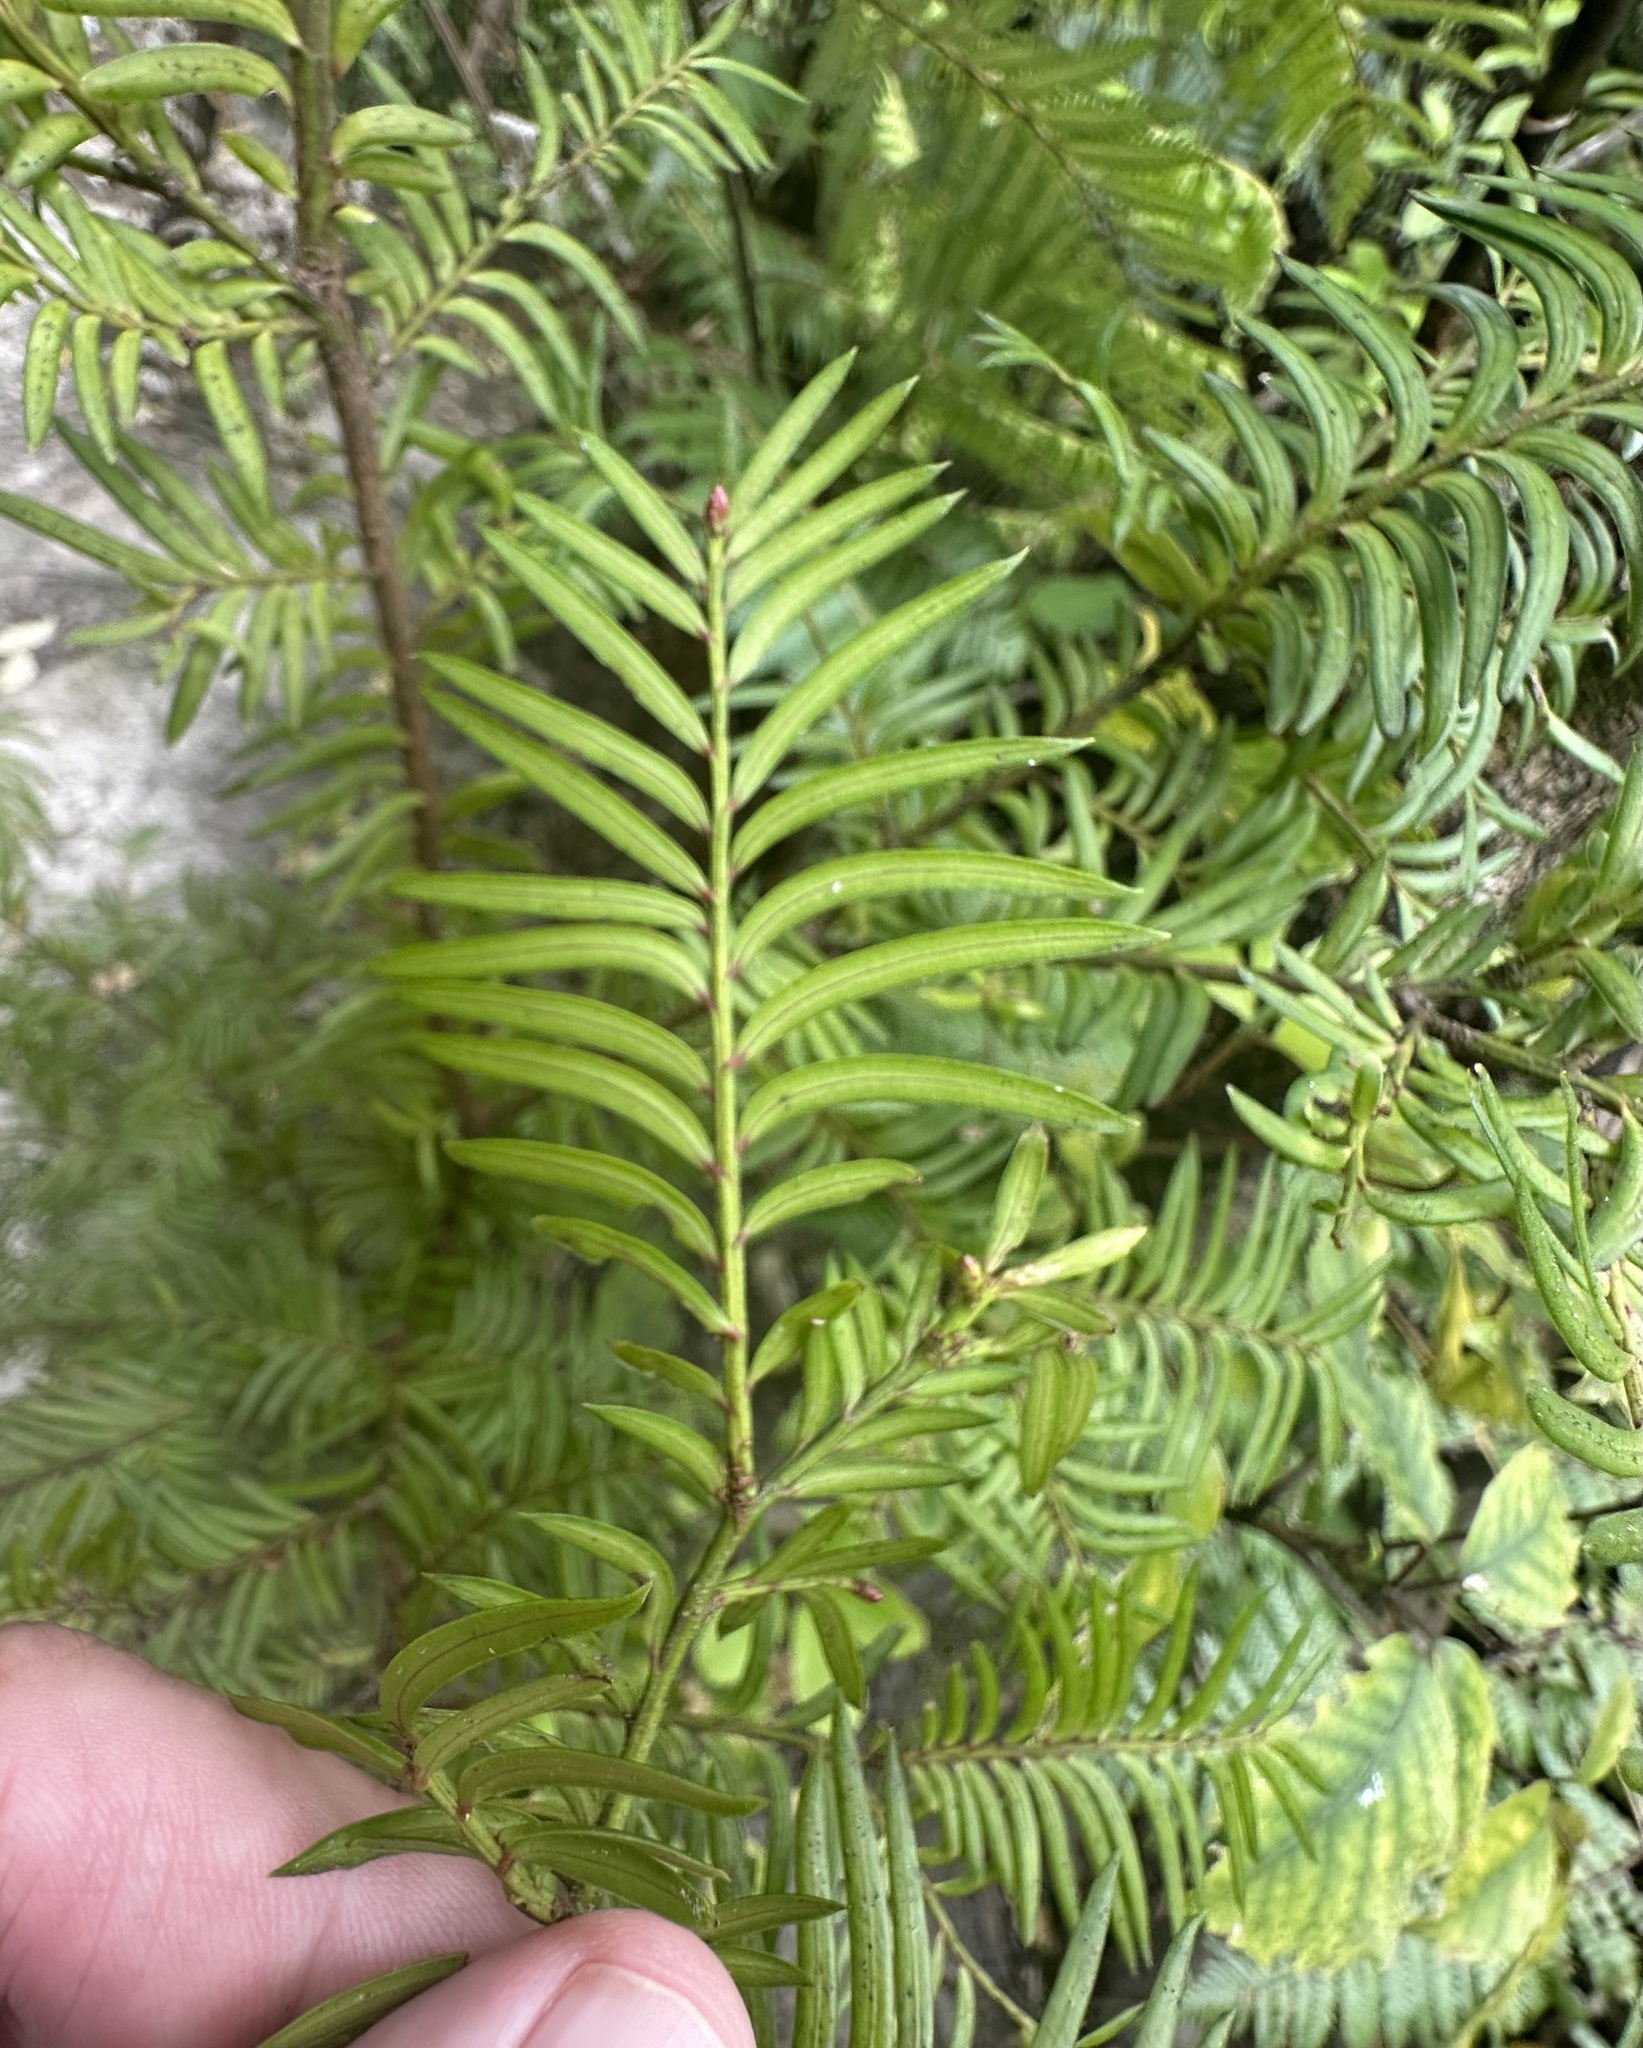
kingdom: Plantae
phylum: Tracheophyta
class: Pinopsida
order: Pinales
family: Podocarpaceae
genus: Prumnopitys
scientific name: Prumnopitys ferruginea
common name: Brown pine
